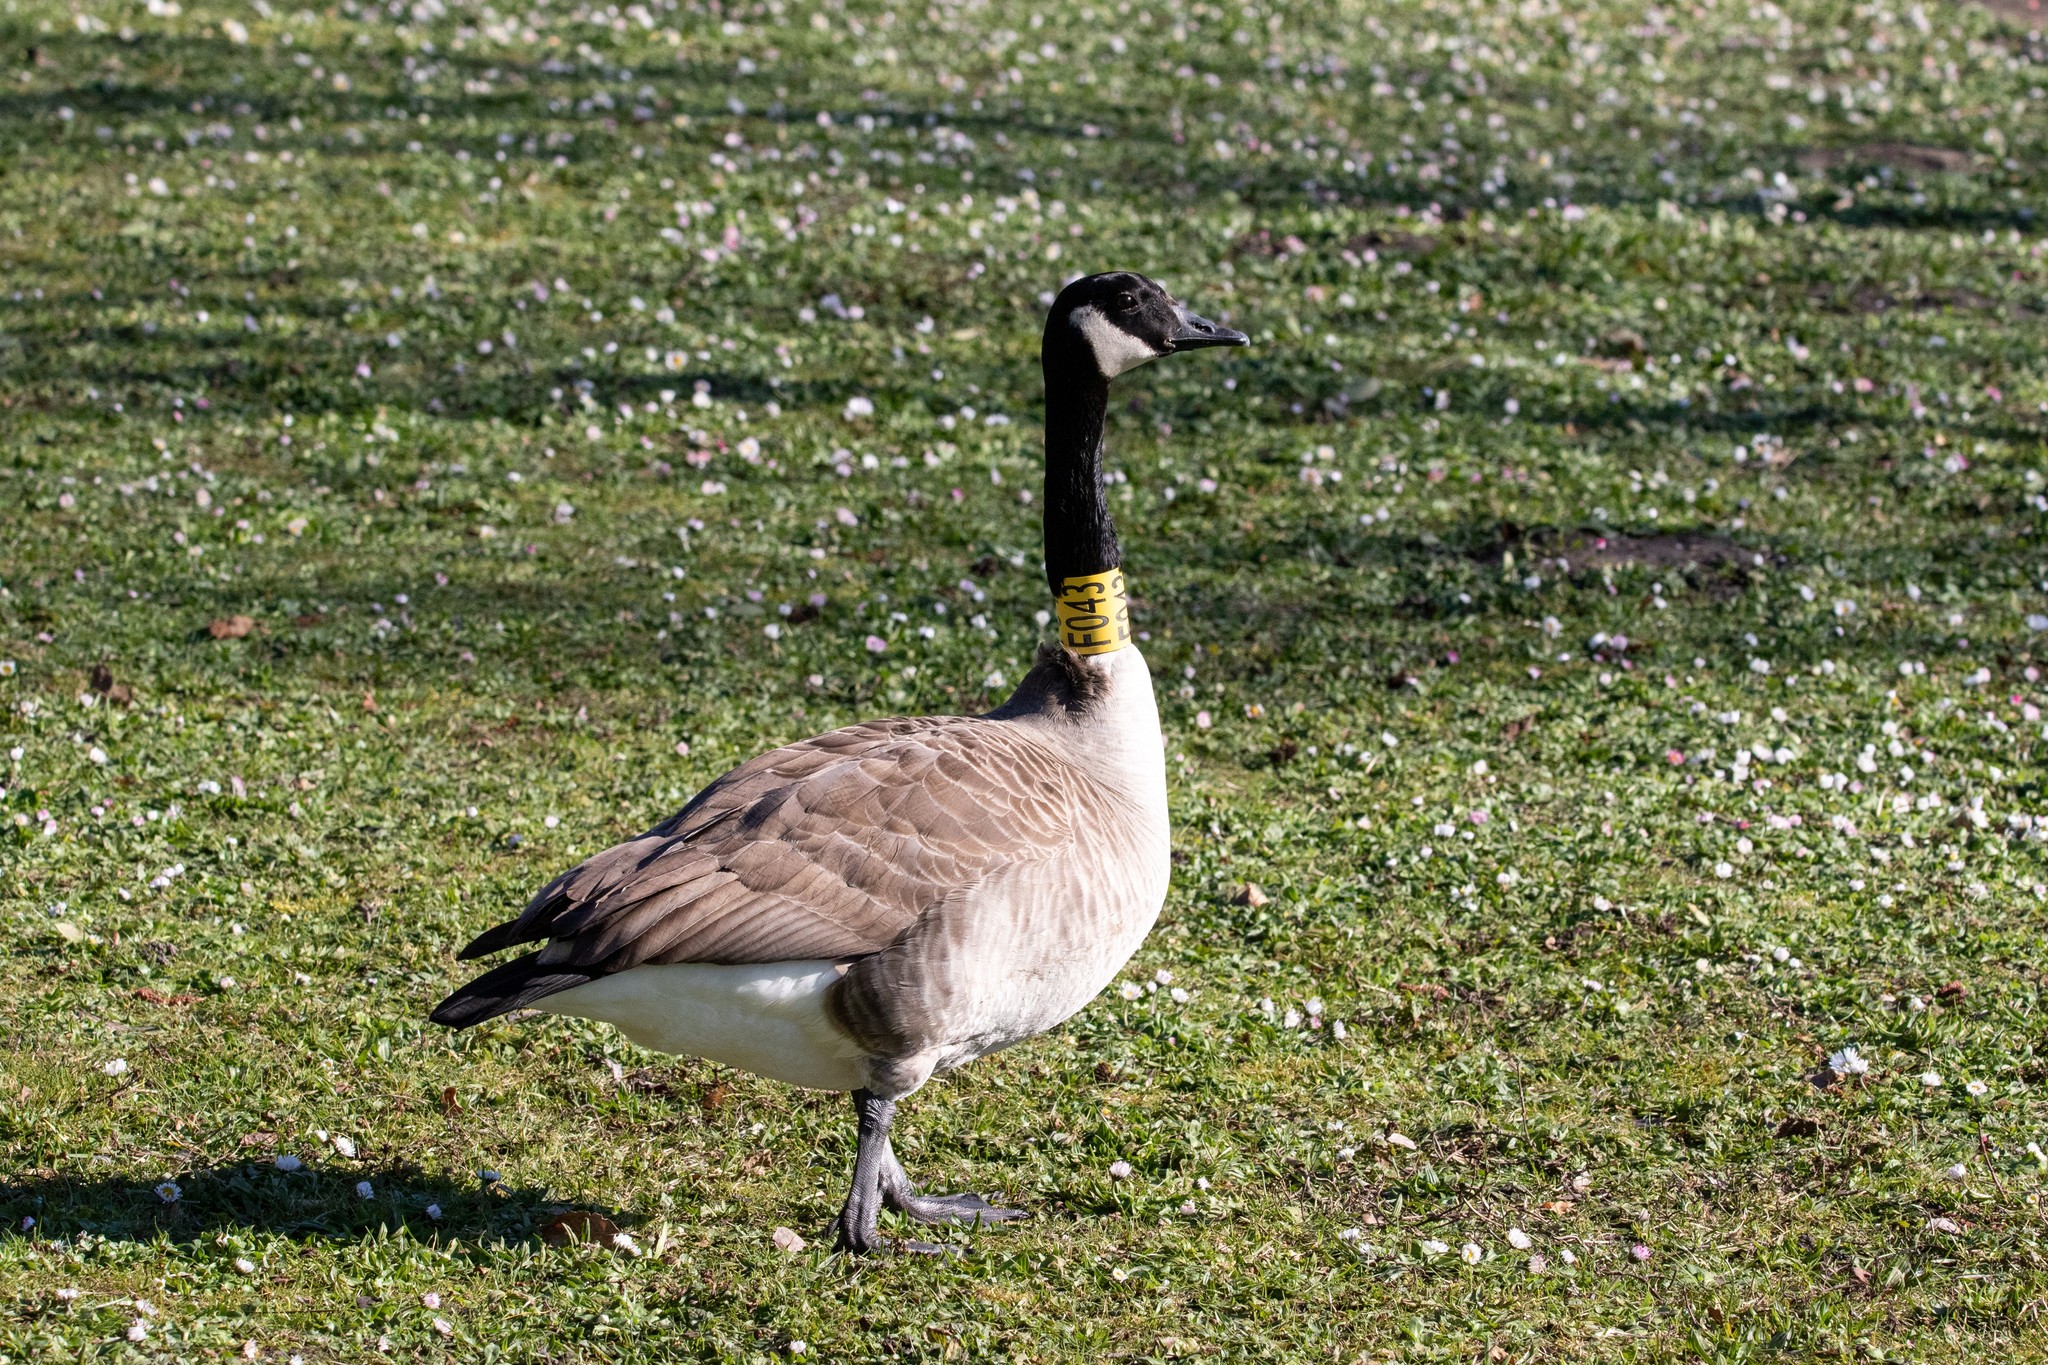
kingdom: Animalia
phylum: Chordata
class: Aves
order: Anseriformes
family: Anatidae
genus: Branta
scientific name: Branta canadensis
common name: Canada goose
